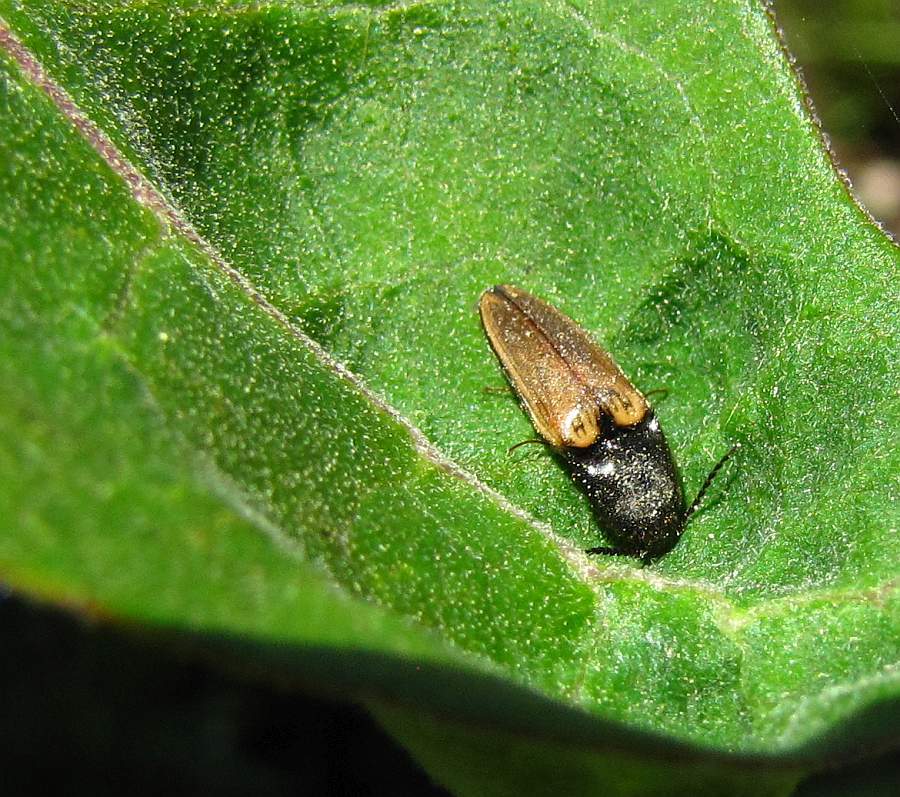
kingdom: Animalia
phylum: Arthropoda
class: Insecta
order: Coleoptera
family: Elateridae
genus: Ampedus
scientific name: Ampedus nigricollis
